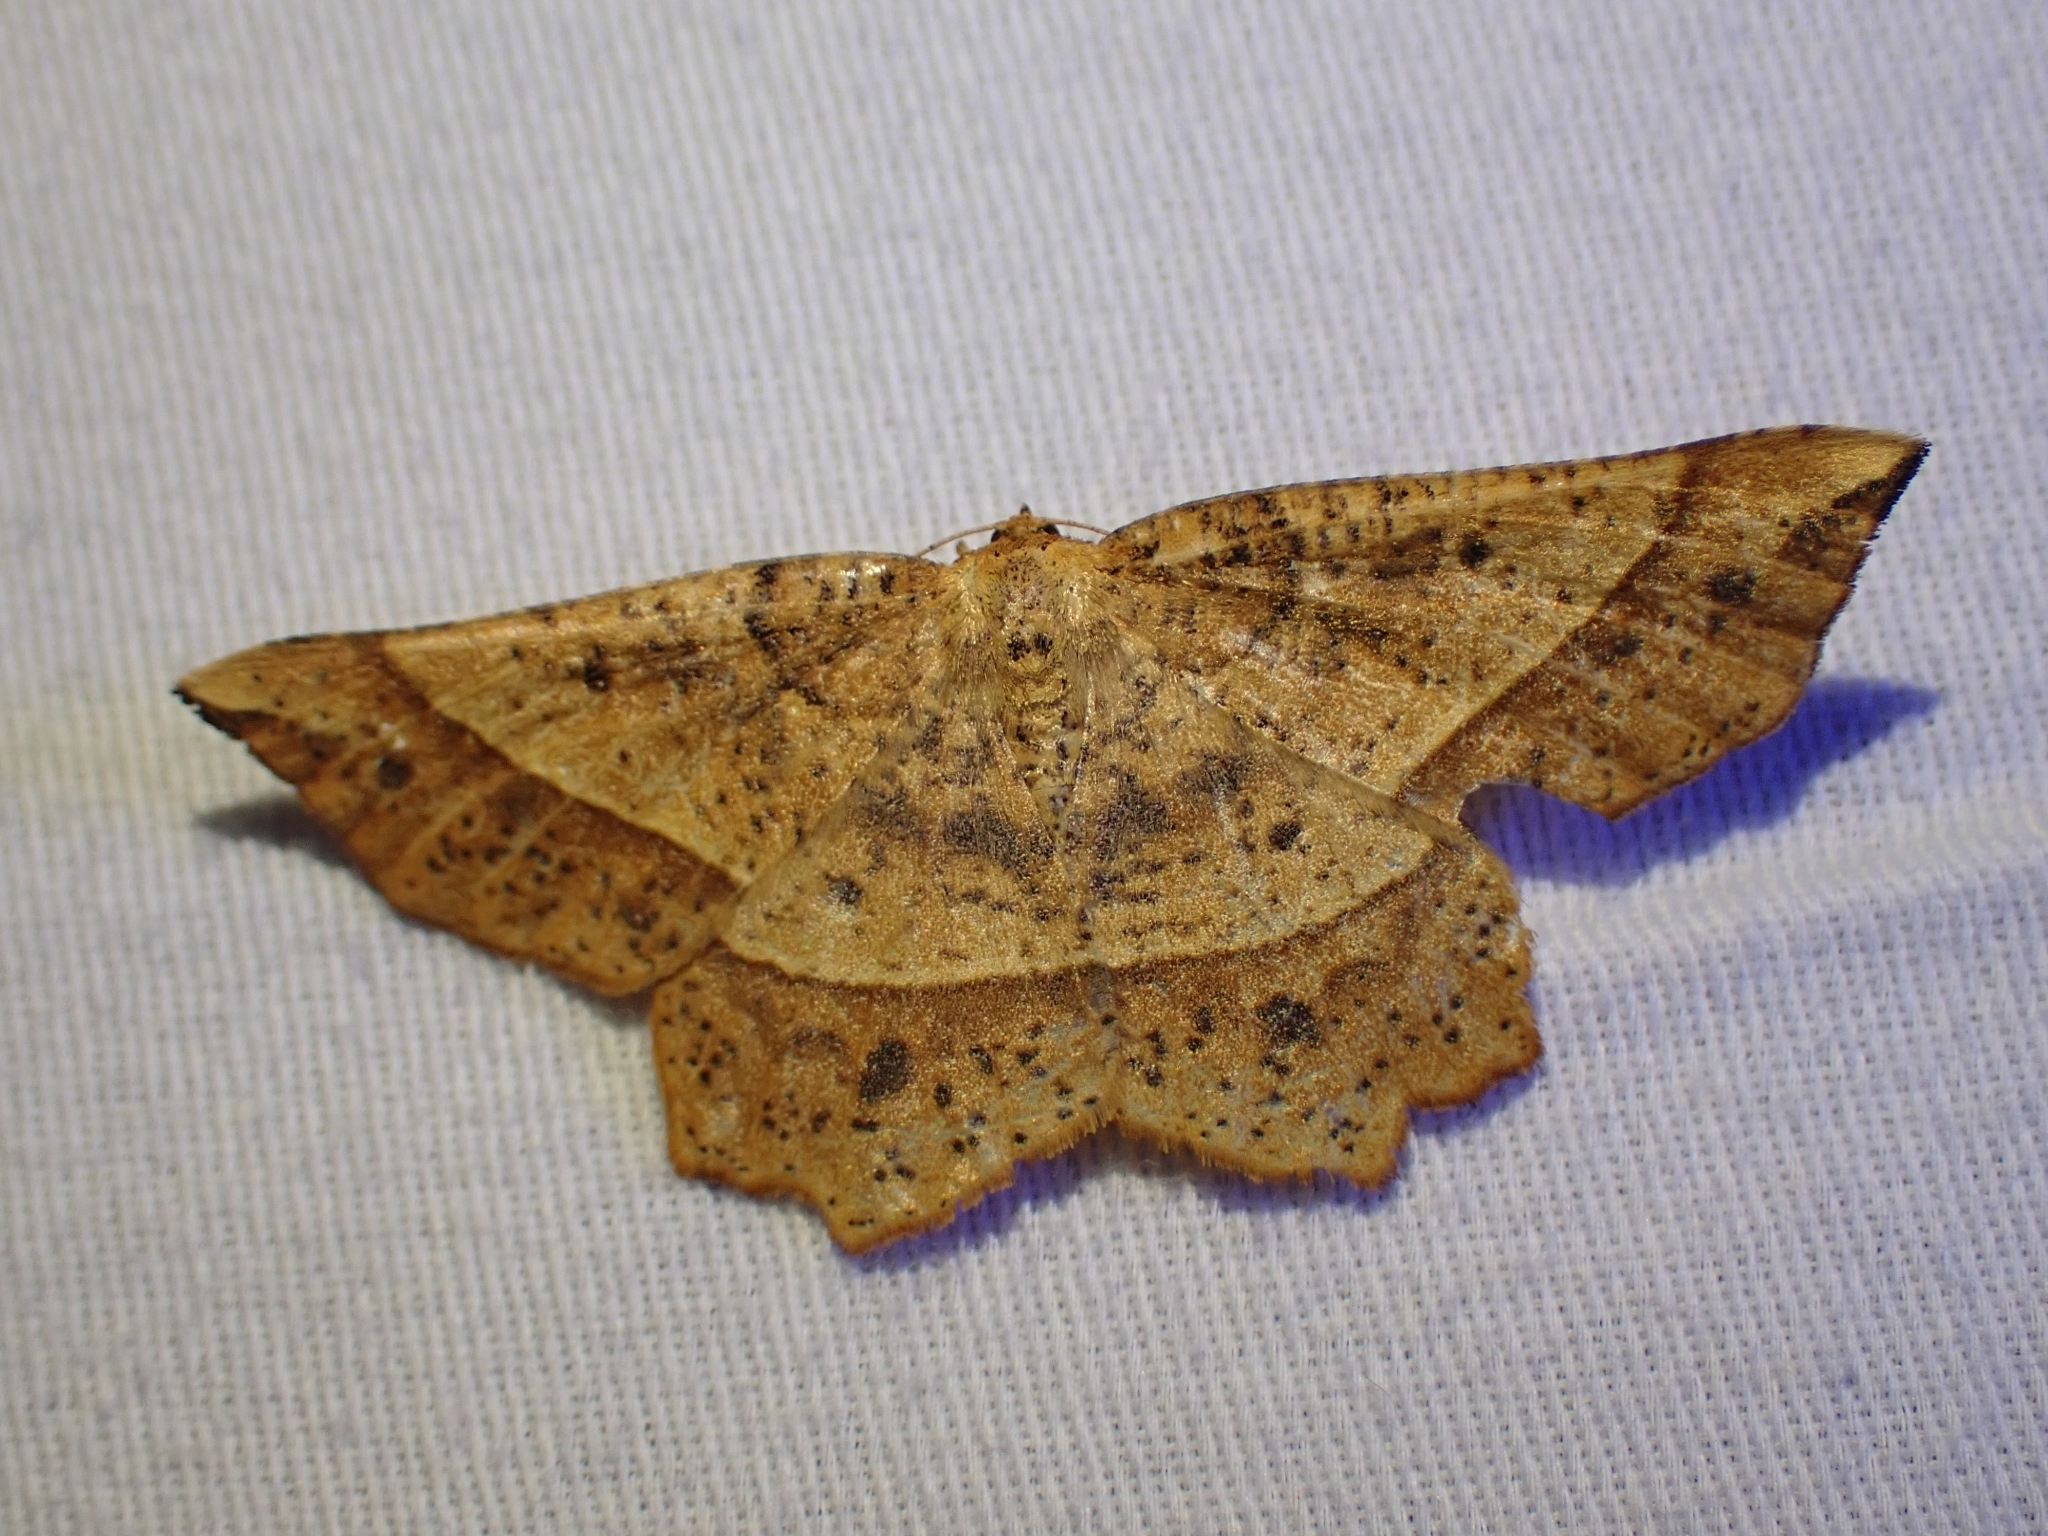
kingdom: Animalia
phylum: Arthropoda
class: Insecta
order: Lepidoptera
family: Geometridae
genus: Euchlaena
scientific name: Euchlaena tigrinaria
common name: Mottled euchlaena moth
